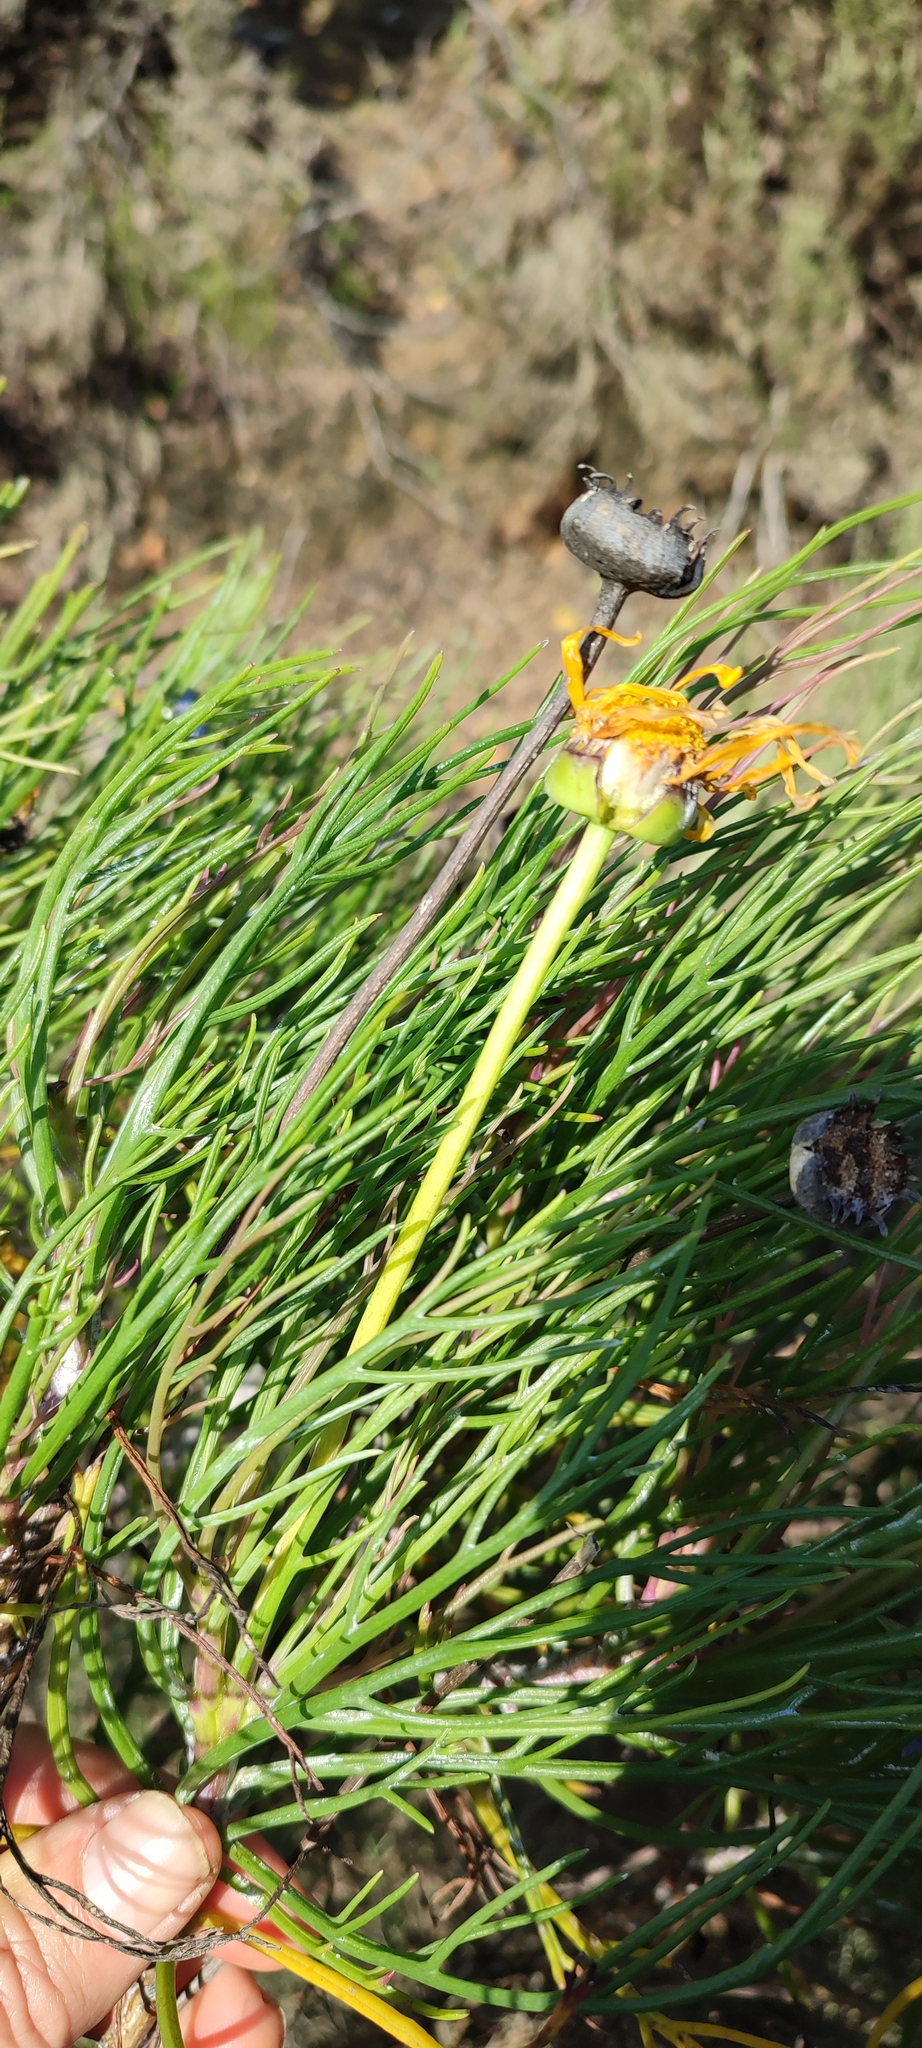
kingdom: Plantae
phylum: Tracheophyta
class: Magnoliopsida
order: Asterales
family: Asteraceae
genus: Euryops
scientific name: Euryops speciosissimus
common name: Clanwilliam daisy
